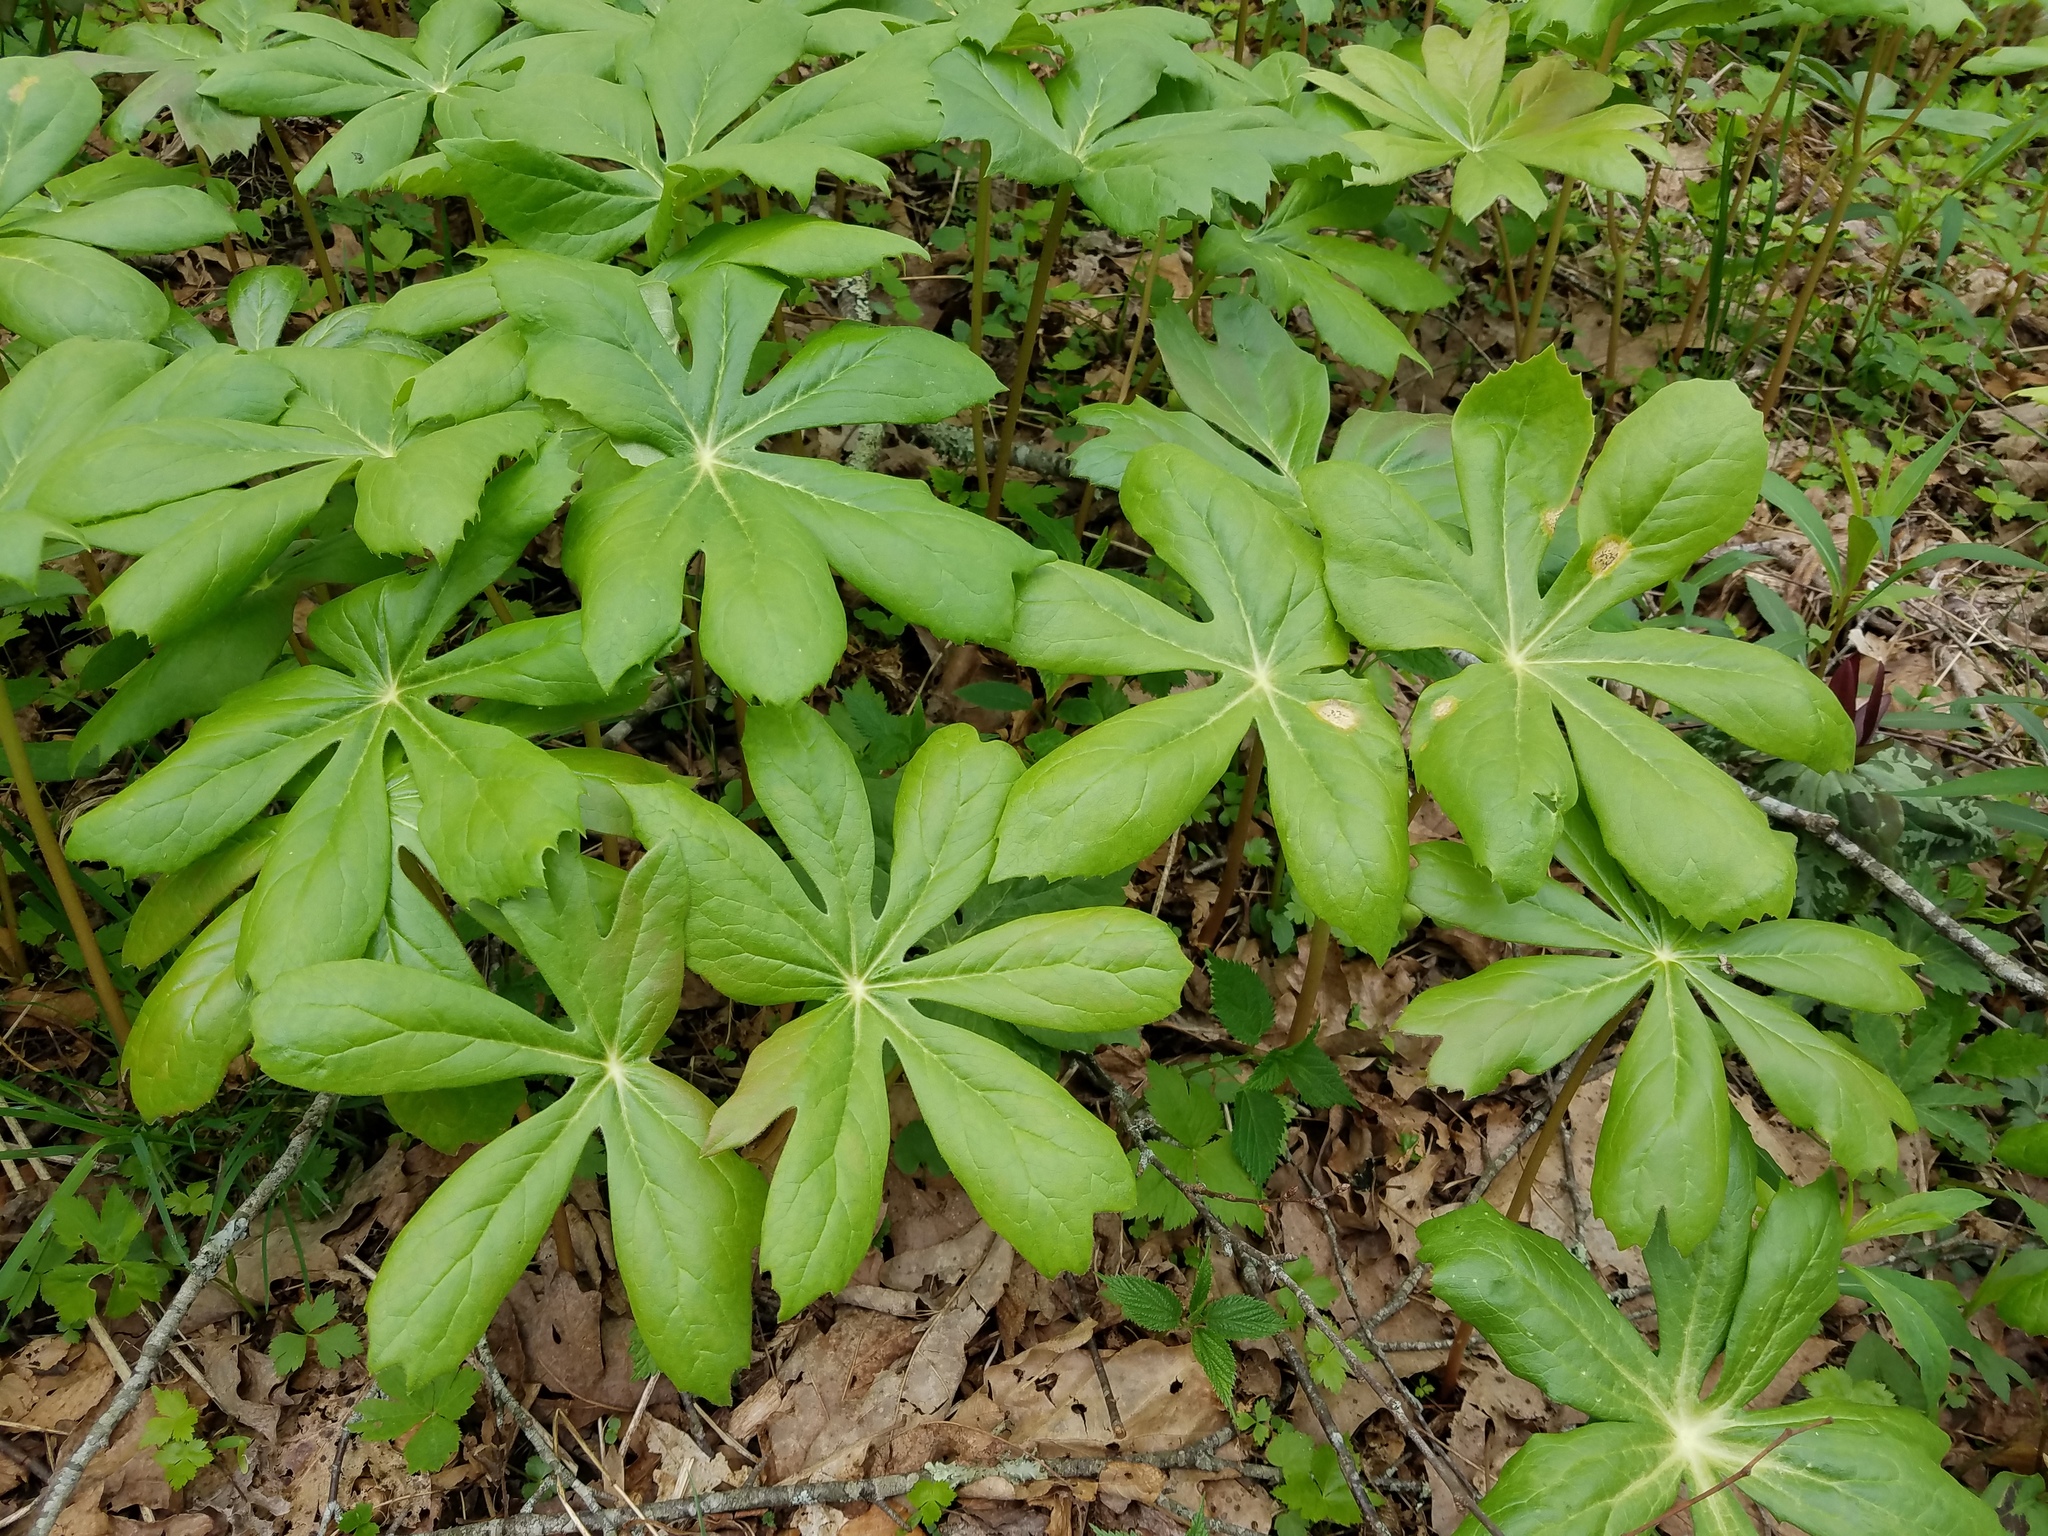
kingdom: Plantae
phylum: Tracheophyta
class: Magnoliopsida
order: Ranunculales
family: Berberidaceae
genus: Podophyllum
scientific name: Podophyllum peltatum
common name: Wild mandrake
